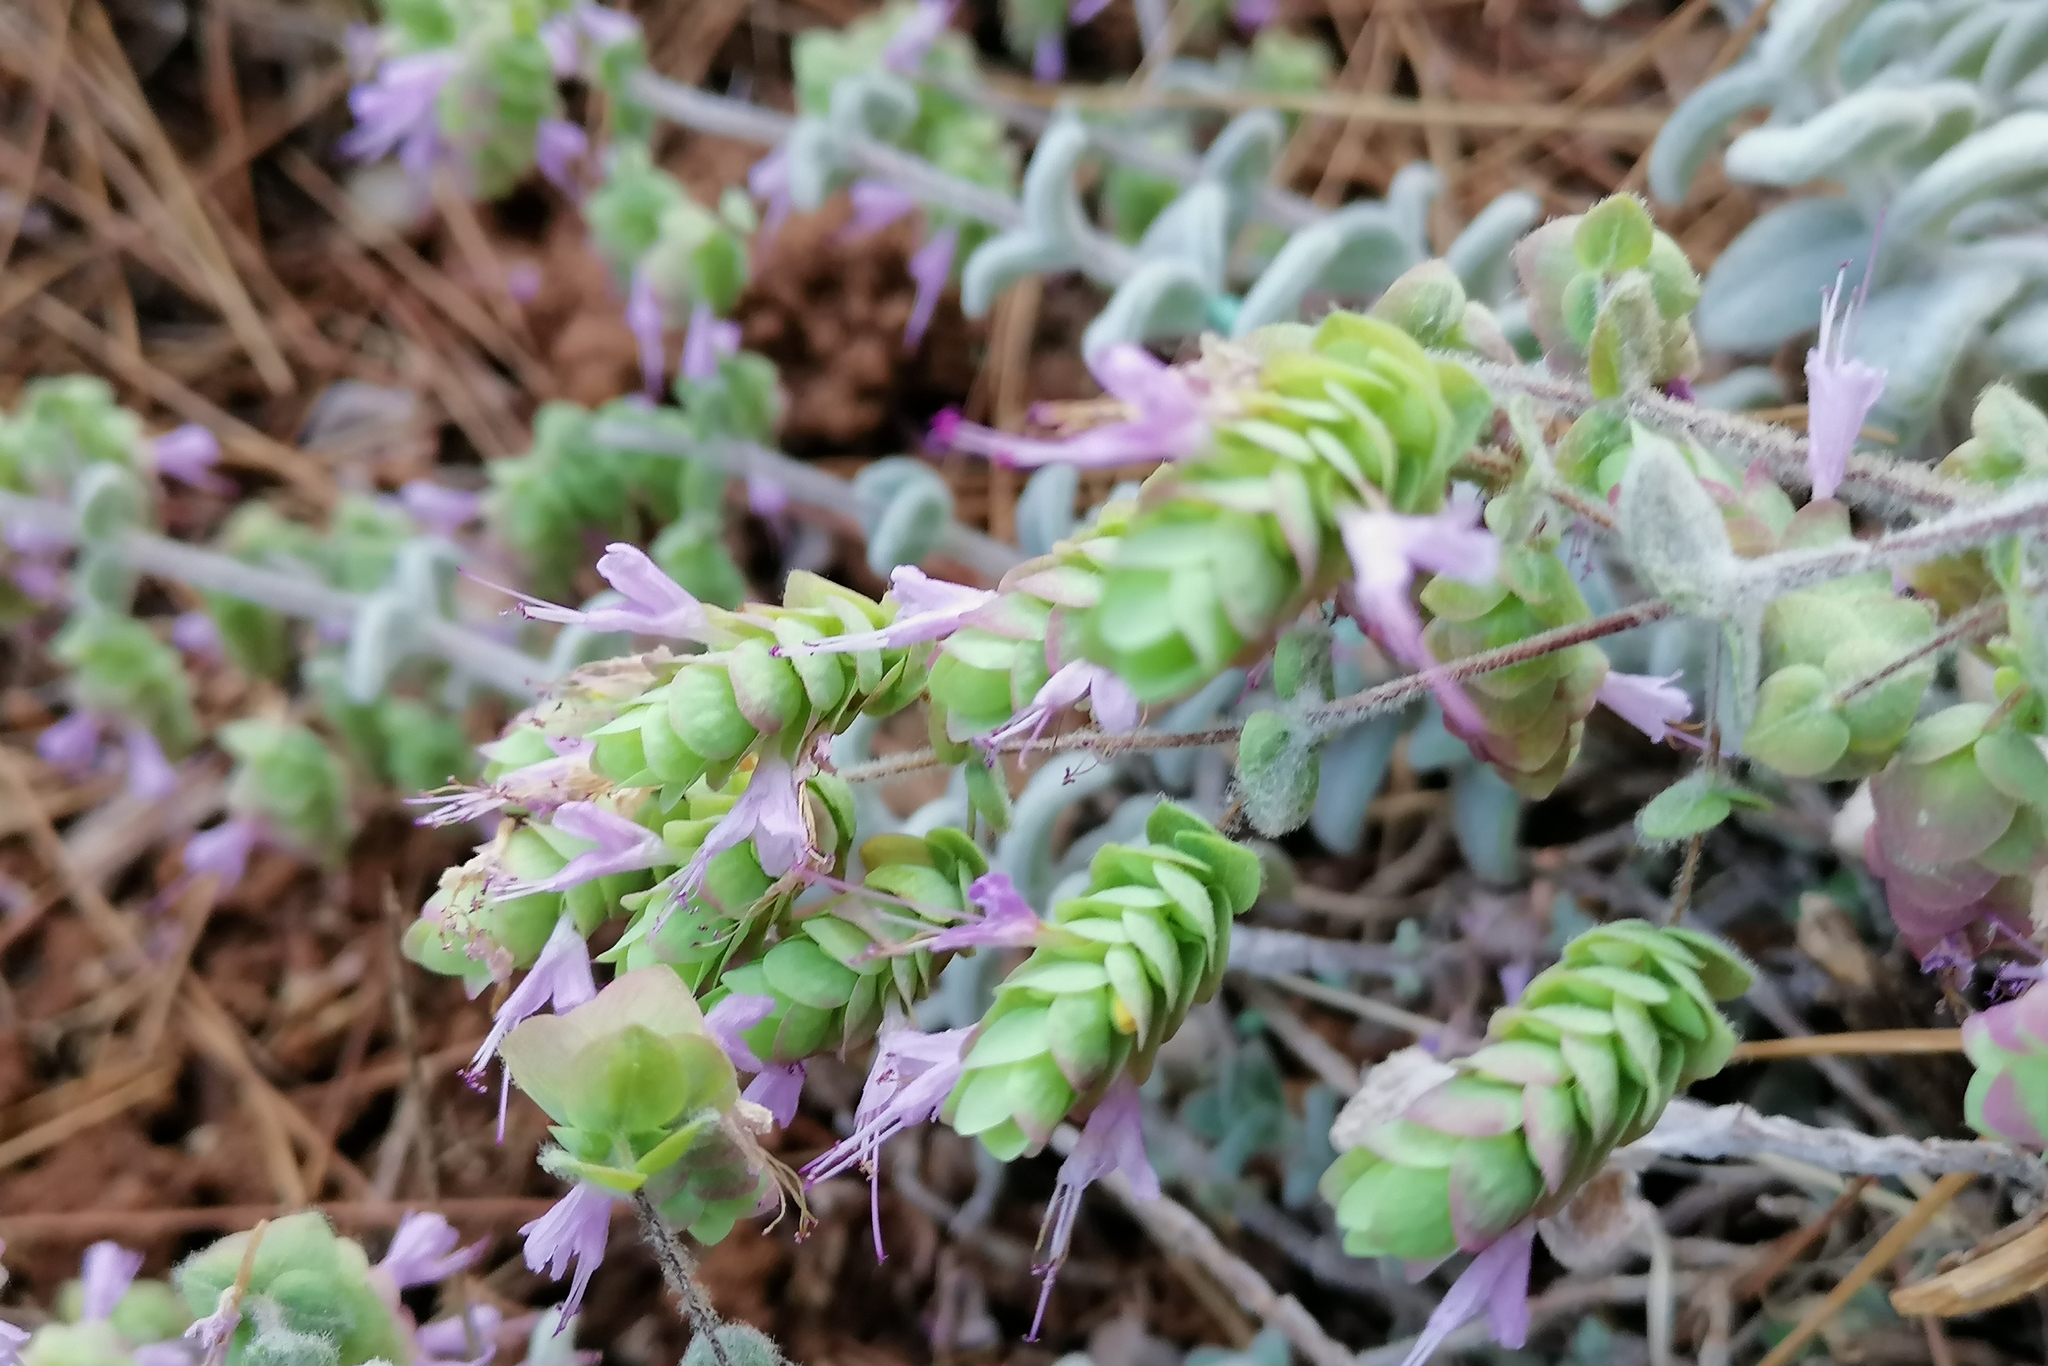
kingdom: Plantae
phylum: Tracheophyta
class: Magnoliopsida
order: Lamiales
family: Lamiaceae
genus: Origanum
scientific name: Origanum dictamnus
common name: Cretan dittany
